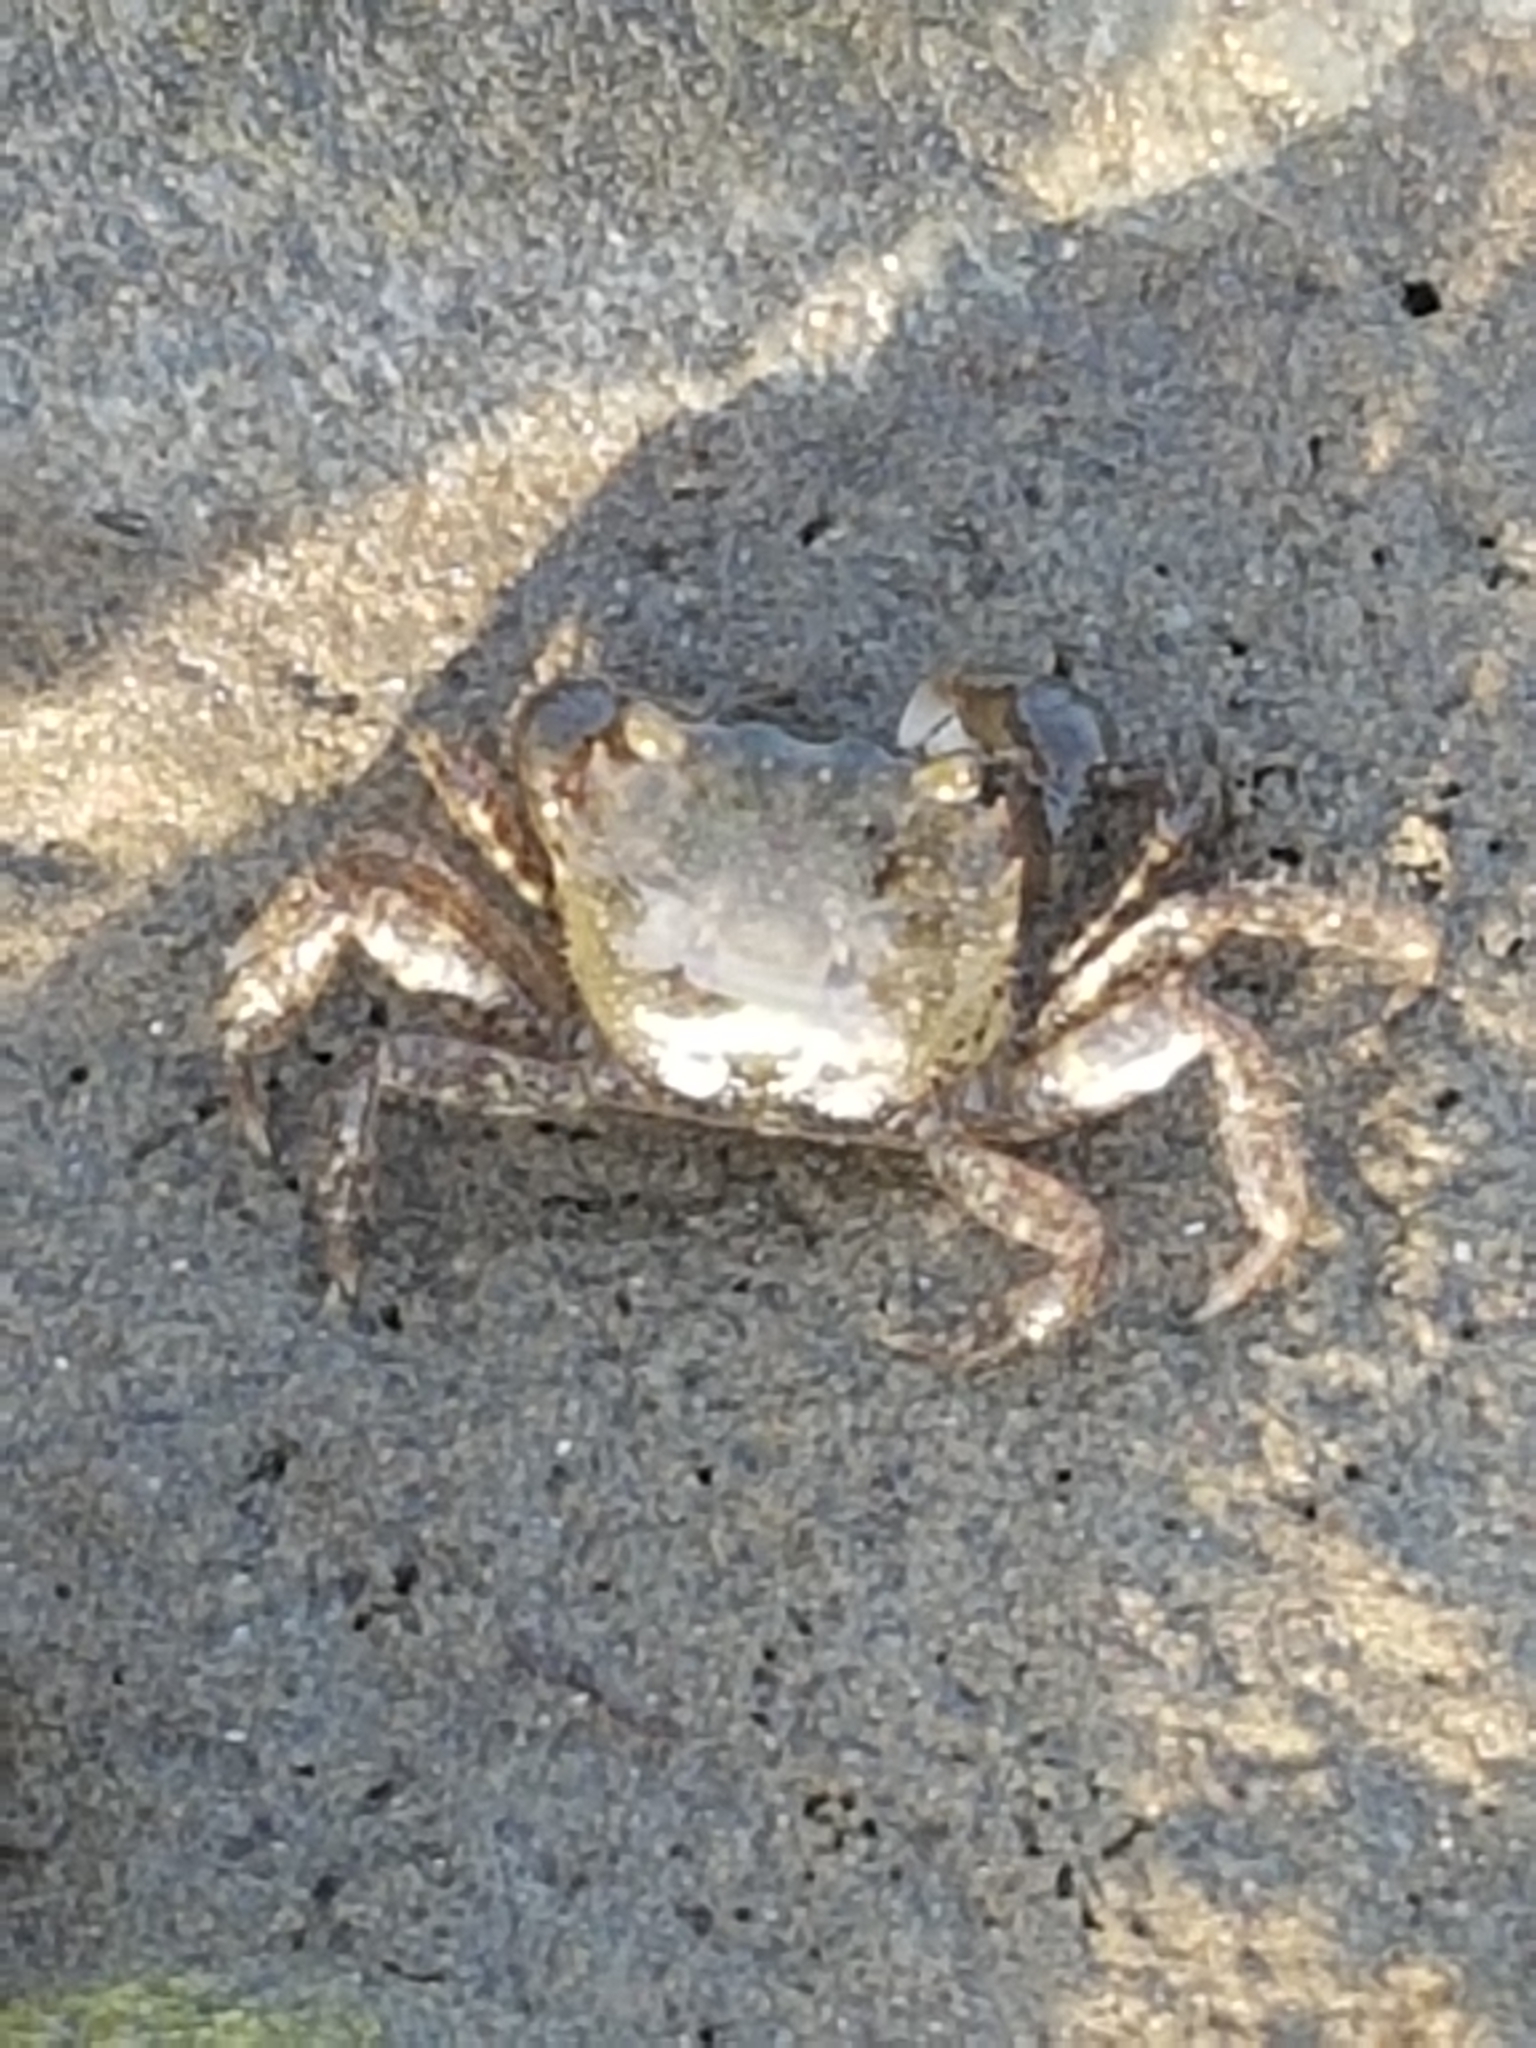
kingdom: Animalia
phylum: Arthropoda
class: Malacostraca
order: Decapoda
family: Varunidae
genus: Hemigrapsus
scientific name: Hemigrapsus oregonensis
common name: Yellow shore crab
